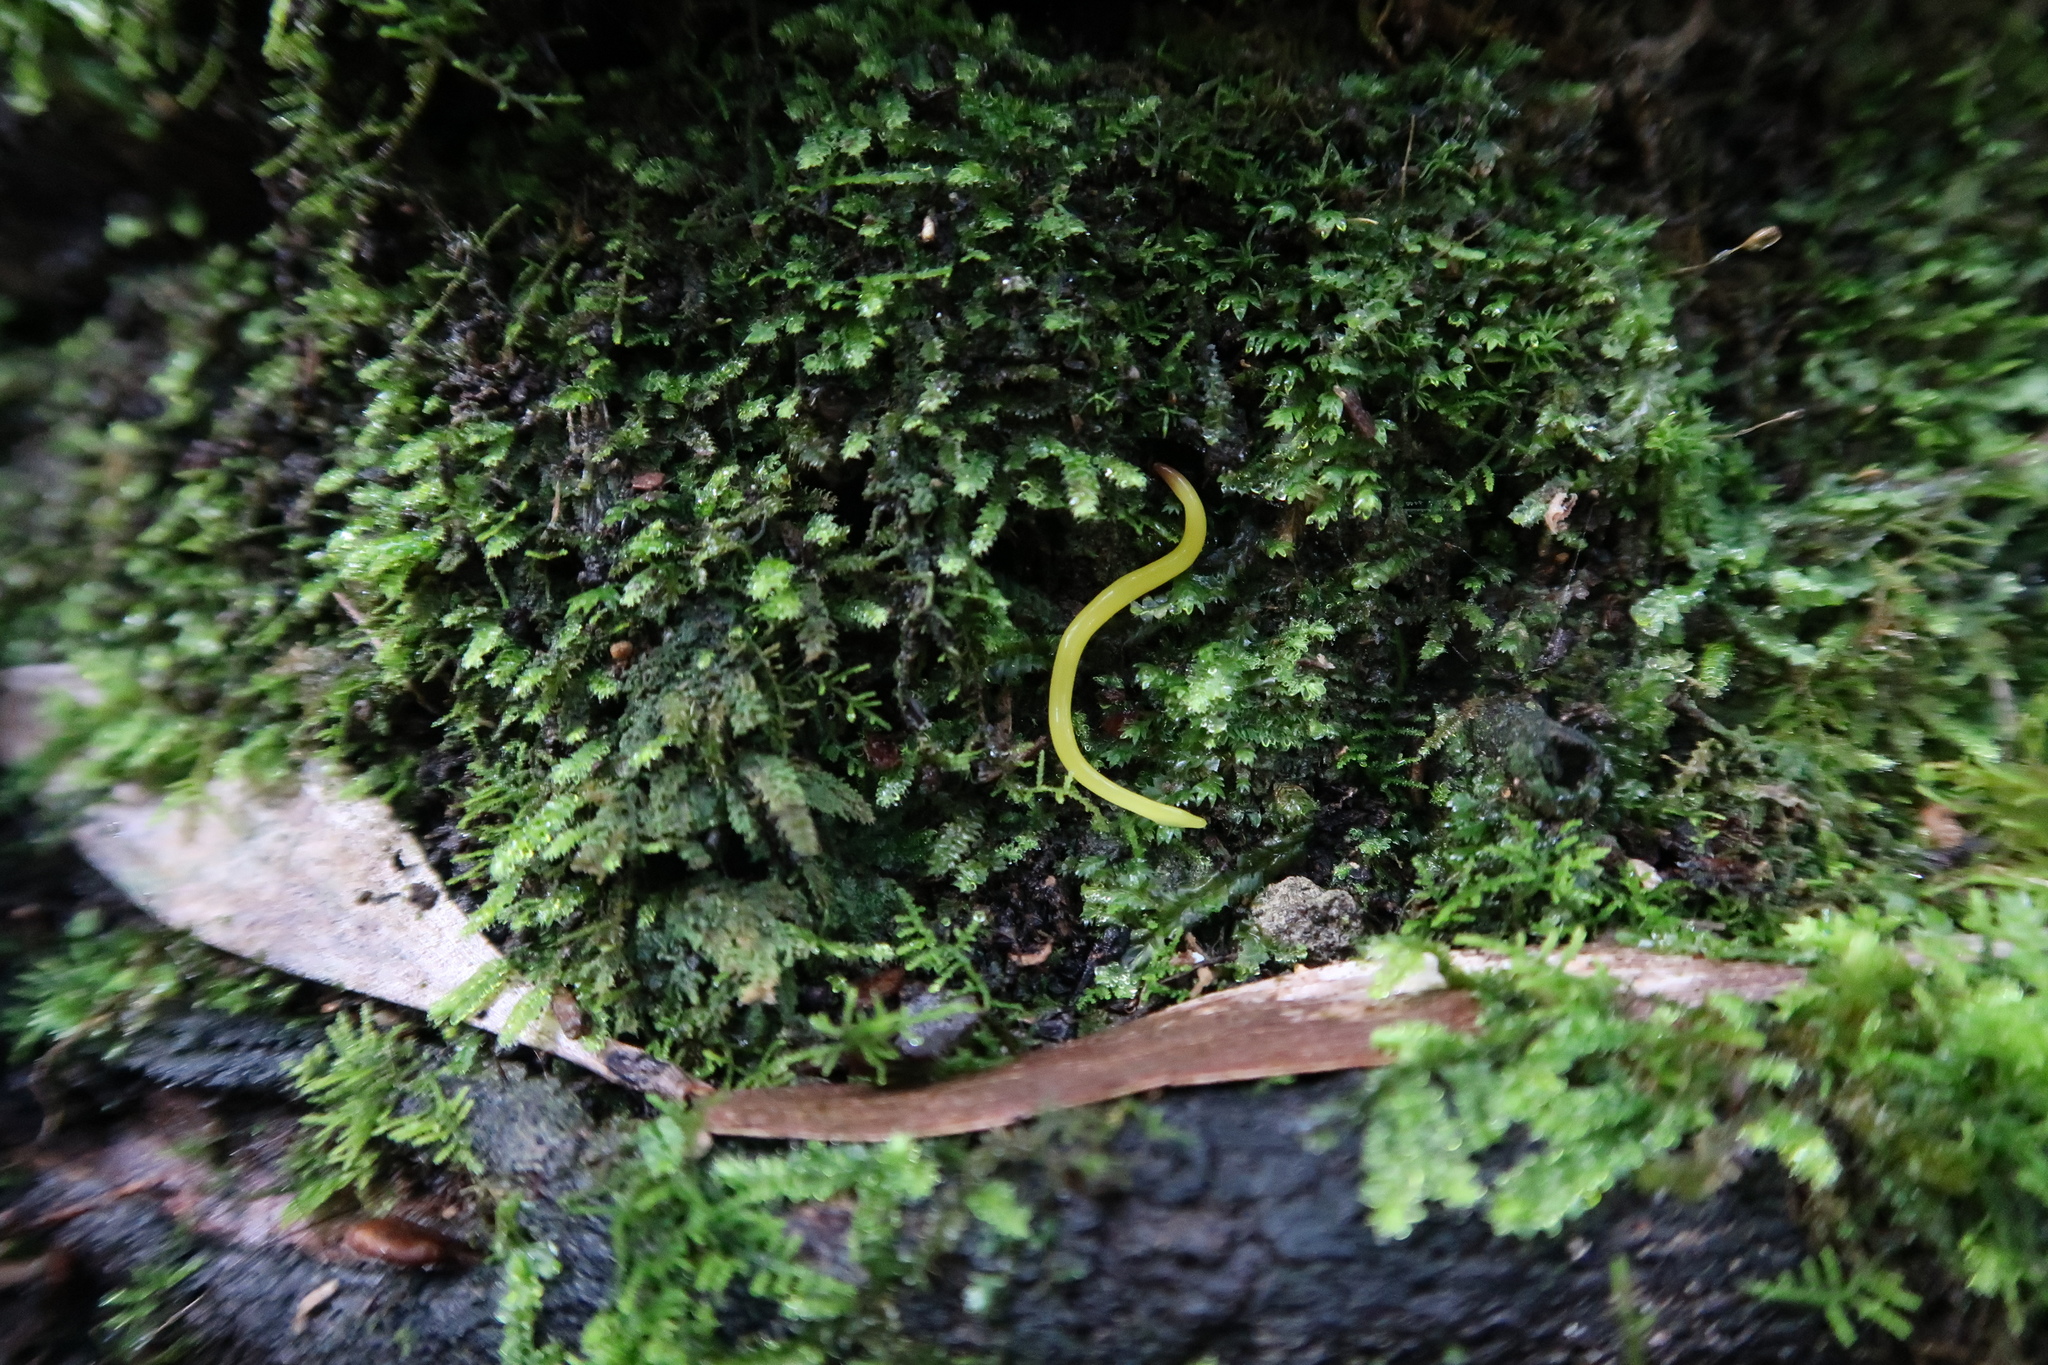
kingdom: Animalia
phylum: Platyhelminthes
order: Tricladida
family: Geoplanidae
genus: Fletchamia
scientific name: Fletchamia sugdeni
